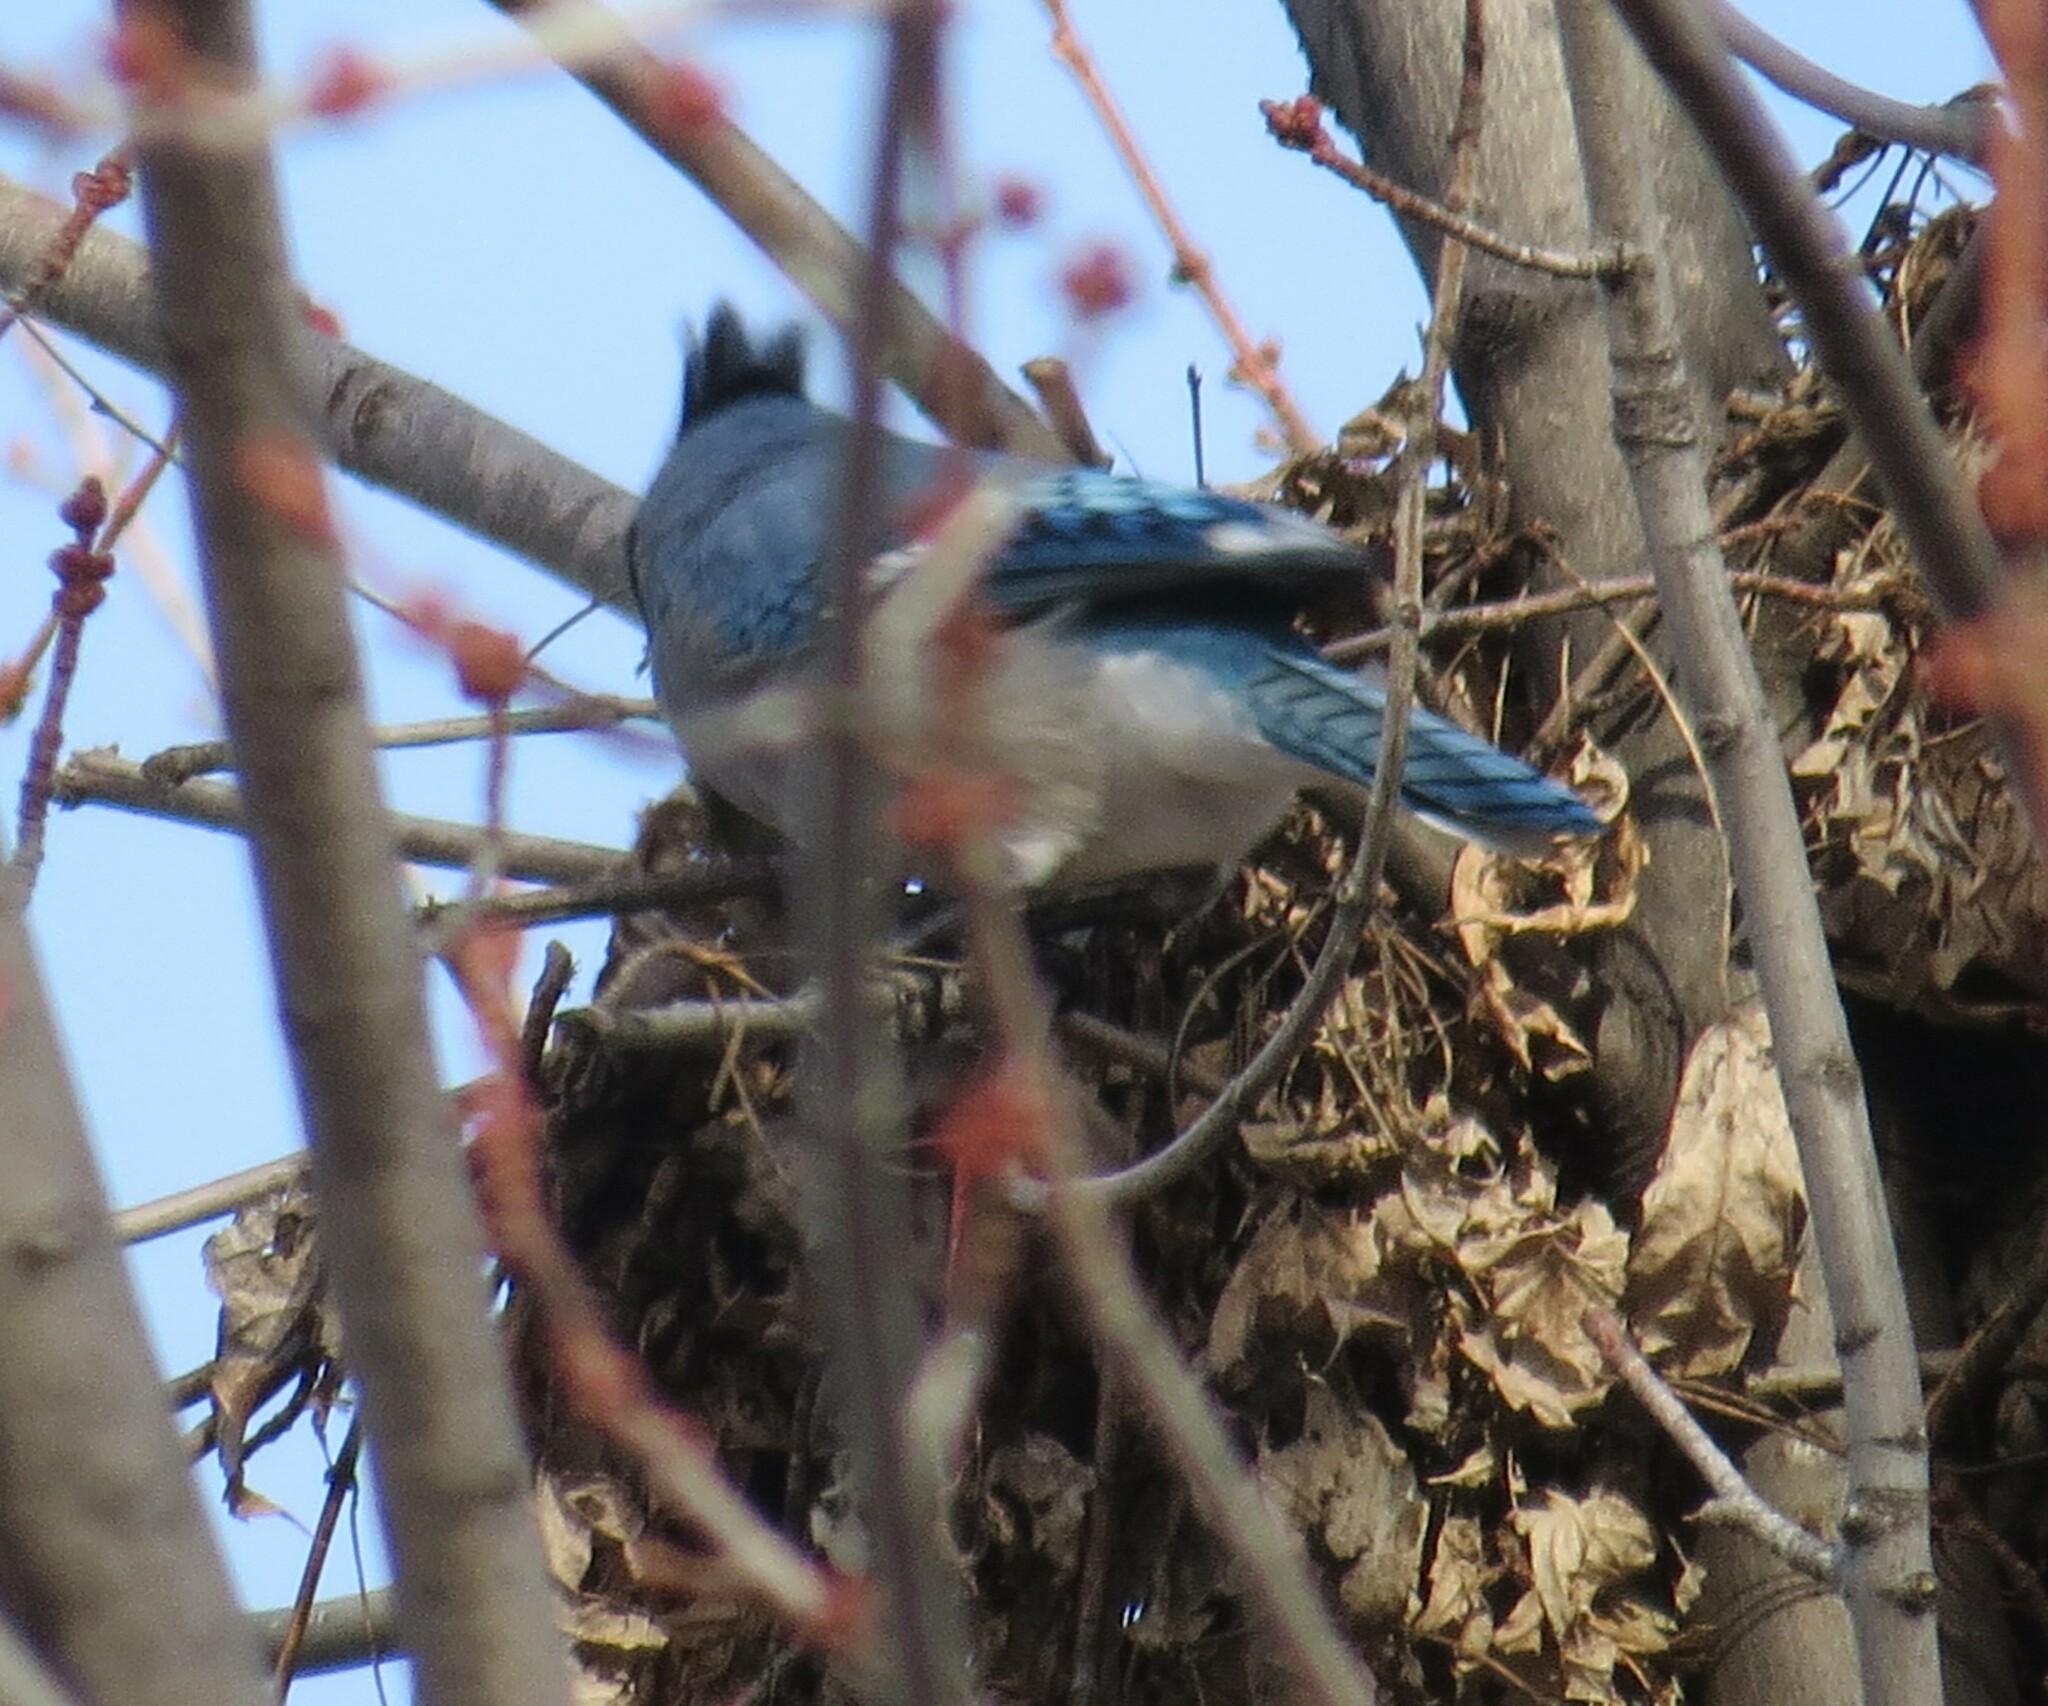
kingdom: Animalia
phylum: Chordata
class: Aves
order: Passeriformes
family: Corvidae
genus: Cyanocitta
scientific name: Cyanocitta cristata
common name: Blue jay
